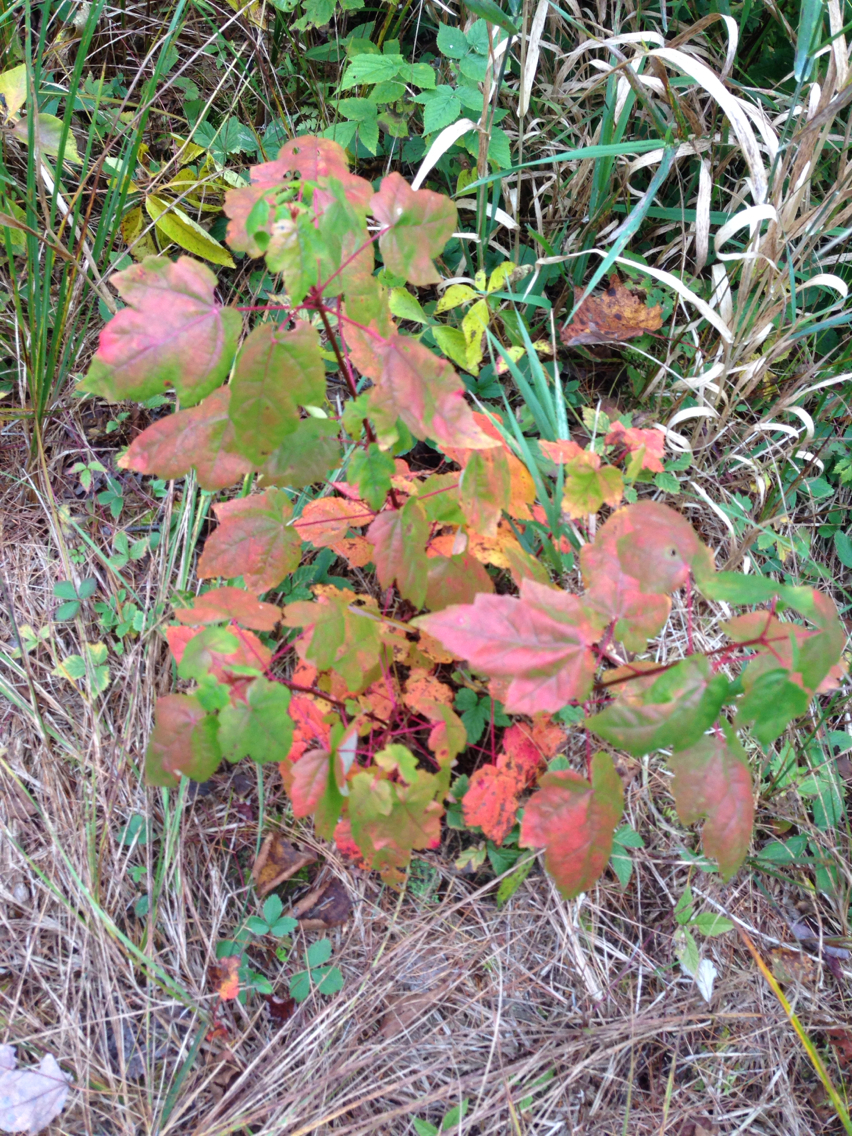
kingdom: Plantae
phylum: Tracheophyta
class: Magnoliopsida
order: Sapindales
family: Sapindaceae
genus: Acer
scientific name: Acer rubrum
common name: Red maple
